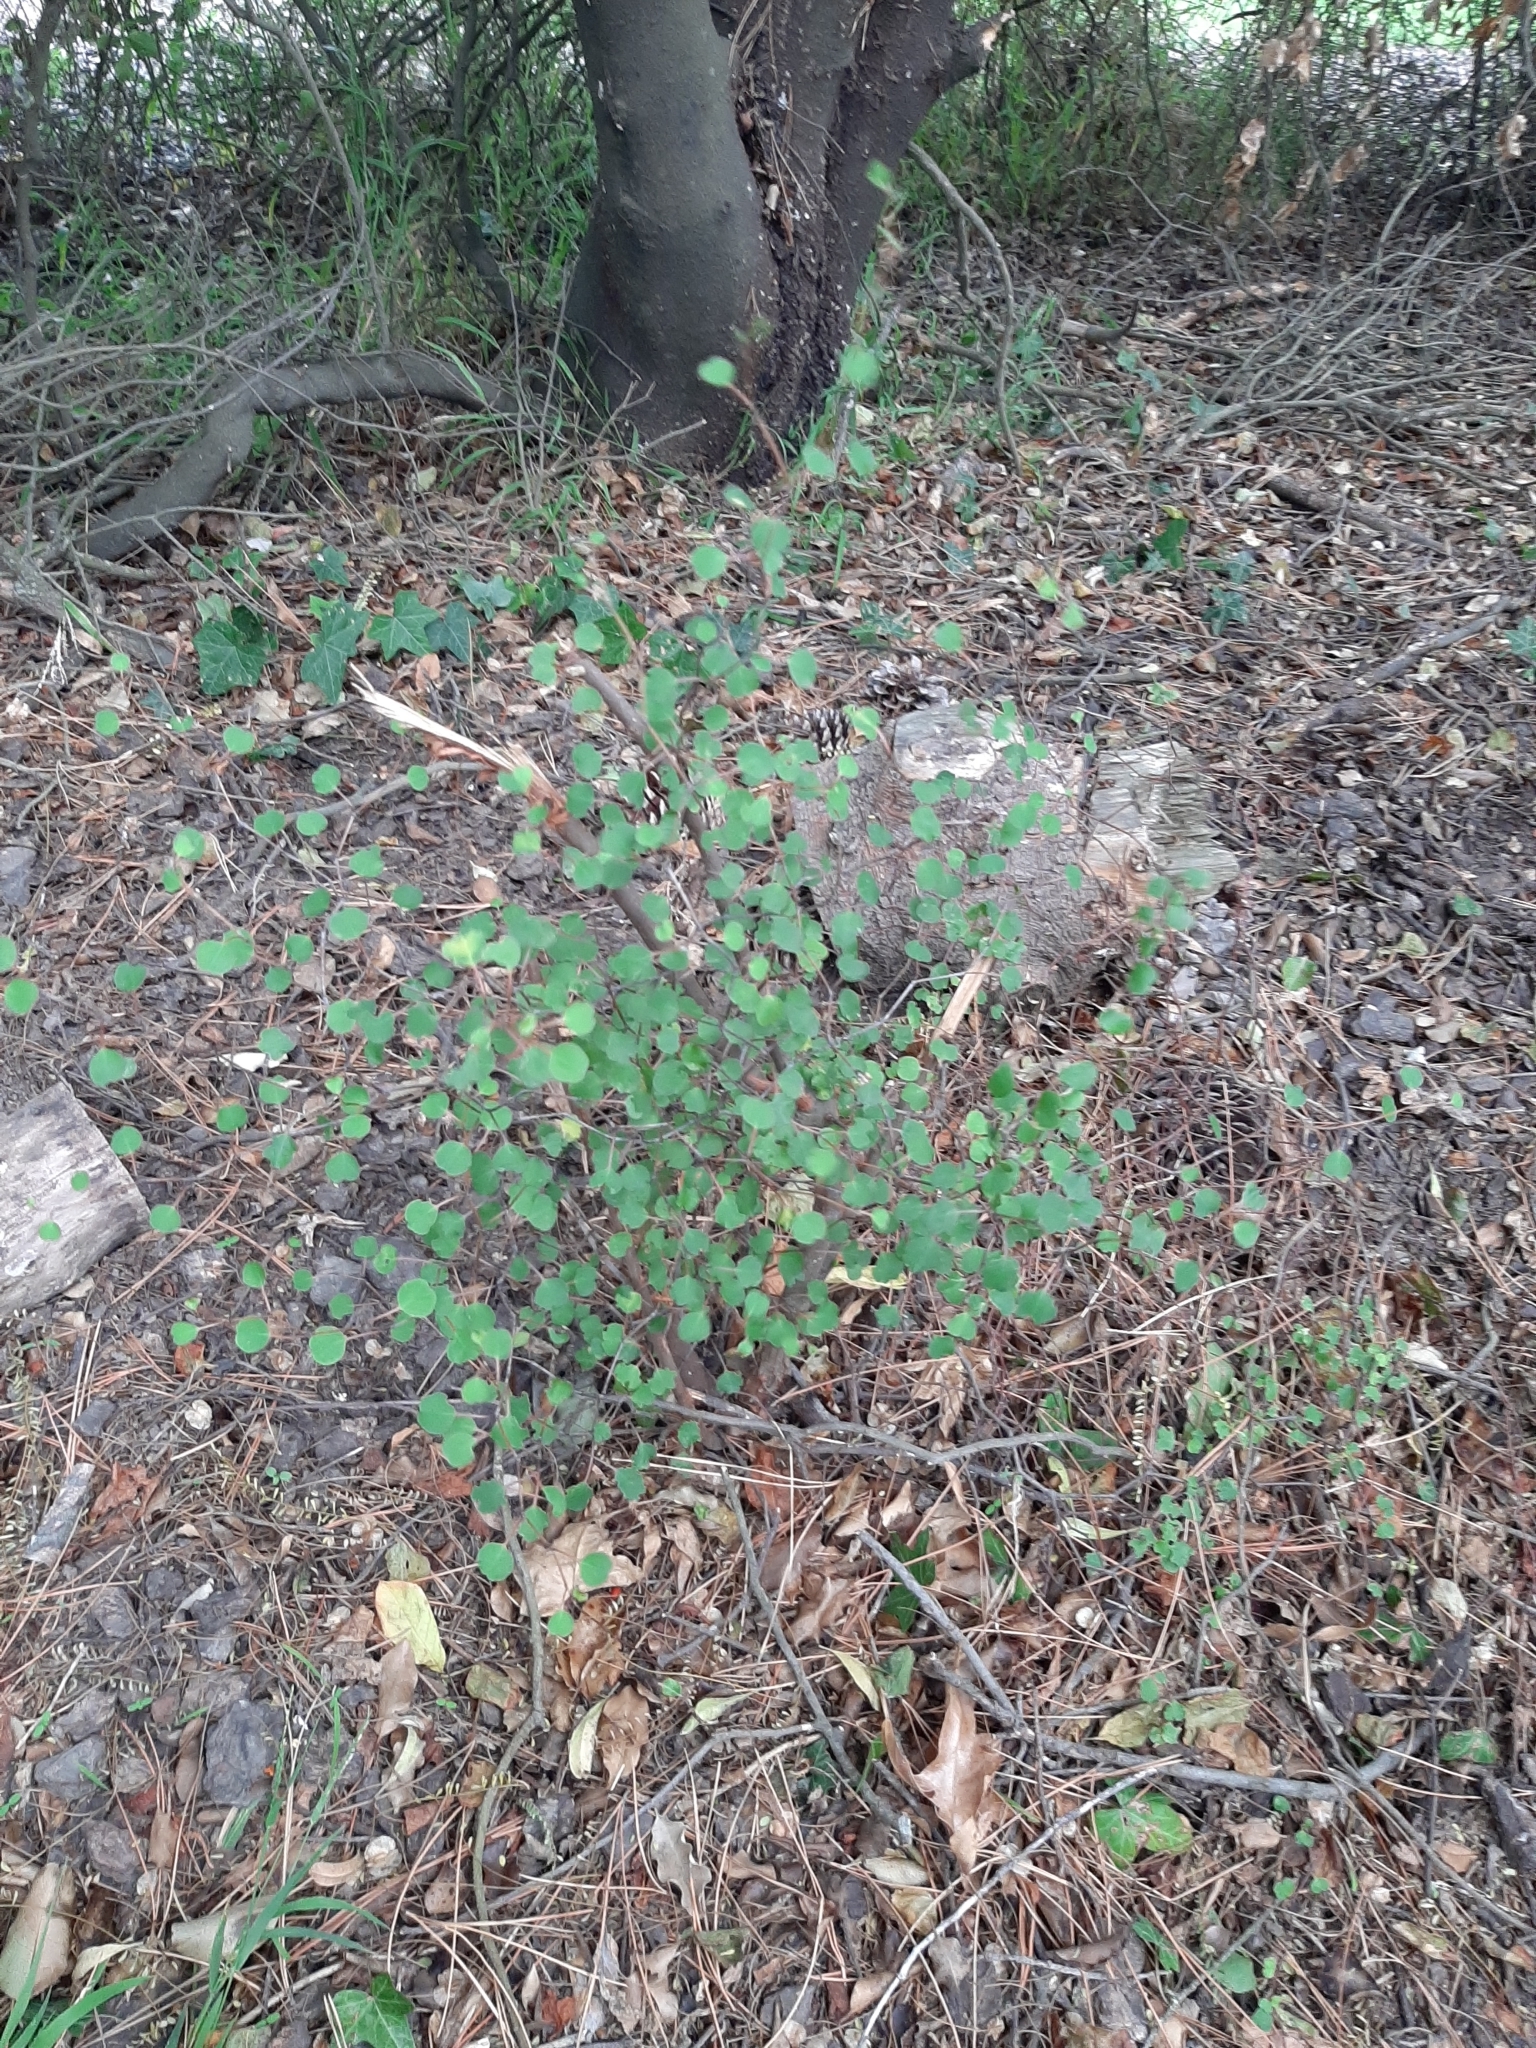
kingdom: Plantae
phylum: Tracheophyta
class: Magnoliopsida
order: Caryophyllales
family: Polygonaceae
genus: Muehlenbeckia
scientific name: Muehlenbeckia astonii
